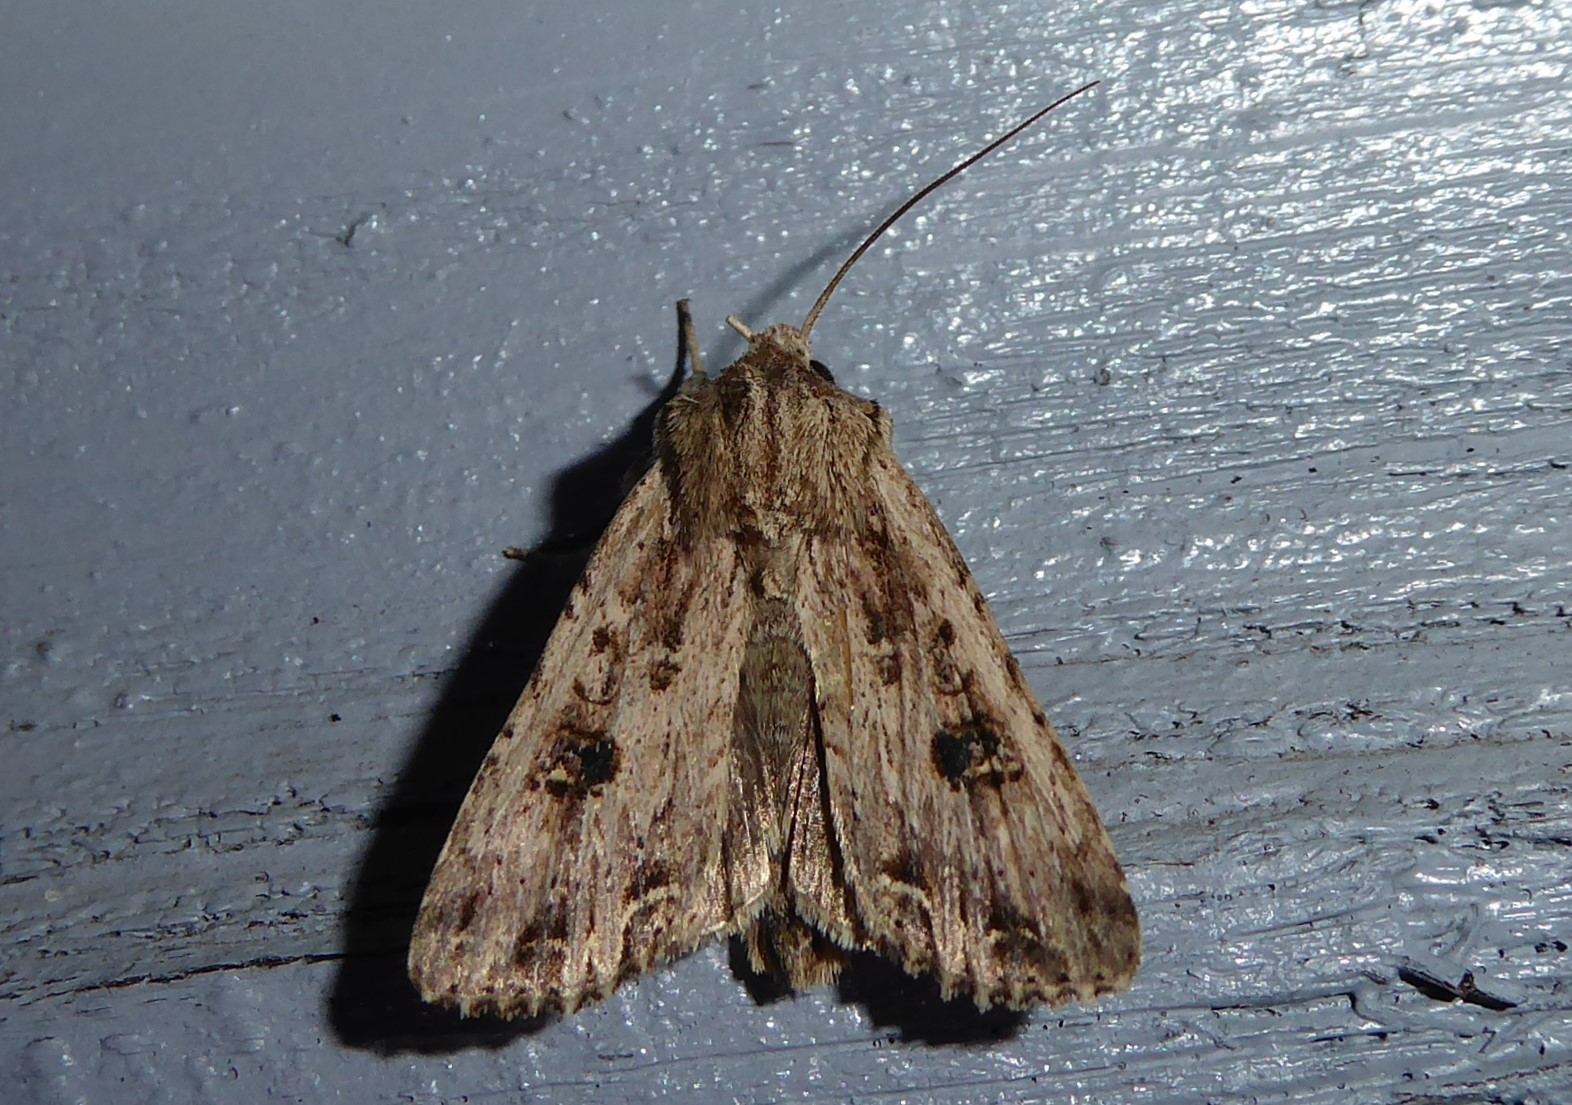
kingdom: Animalia
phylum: Arthropoda
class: Insecta
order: Lepidoptera
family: Noctuidae
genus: Ichneutica
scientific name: Ichneutica lignana
